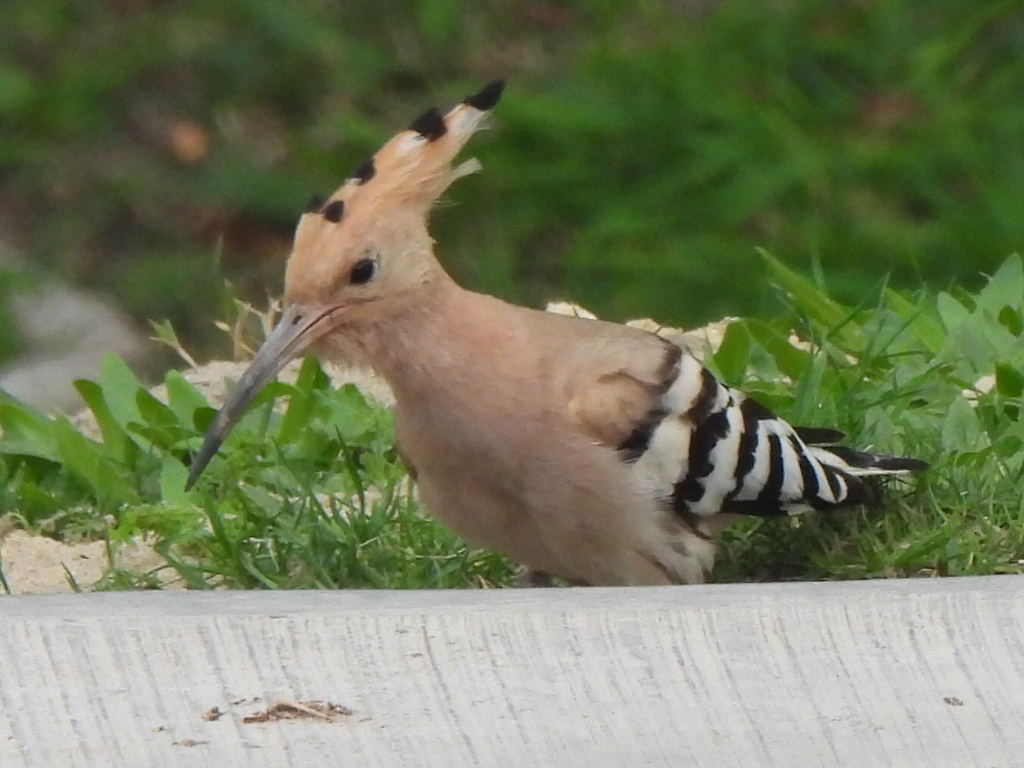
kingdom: Animalia
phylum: Chordata
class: Aves
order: Bucerotiformes
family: Upupidae
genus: Upupa
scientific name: Upupa epops
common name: Eurasian hoopoe
